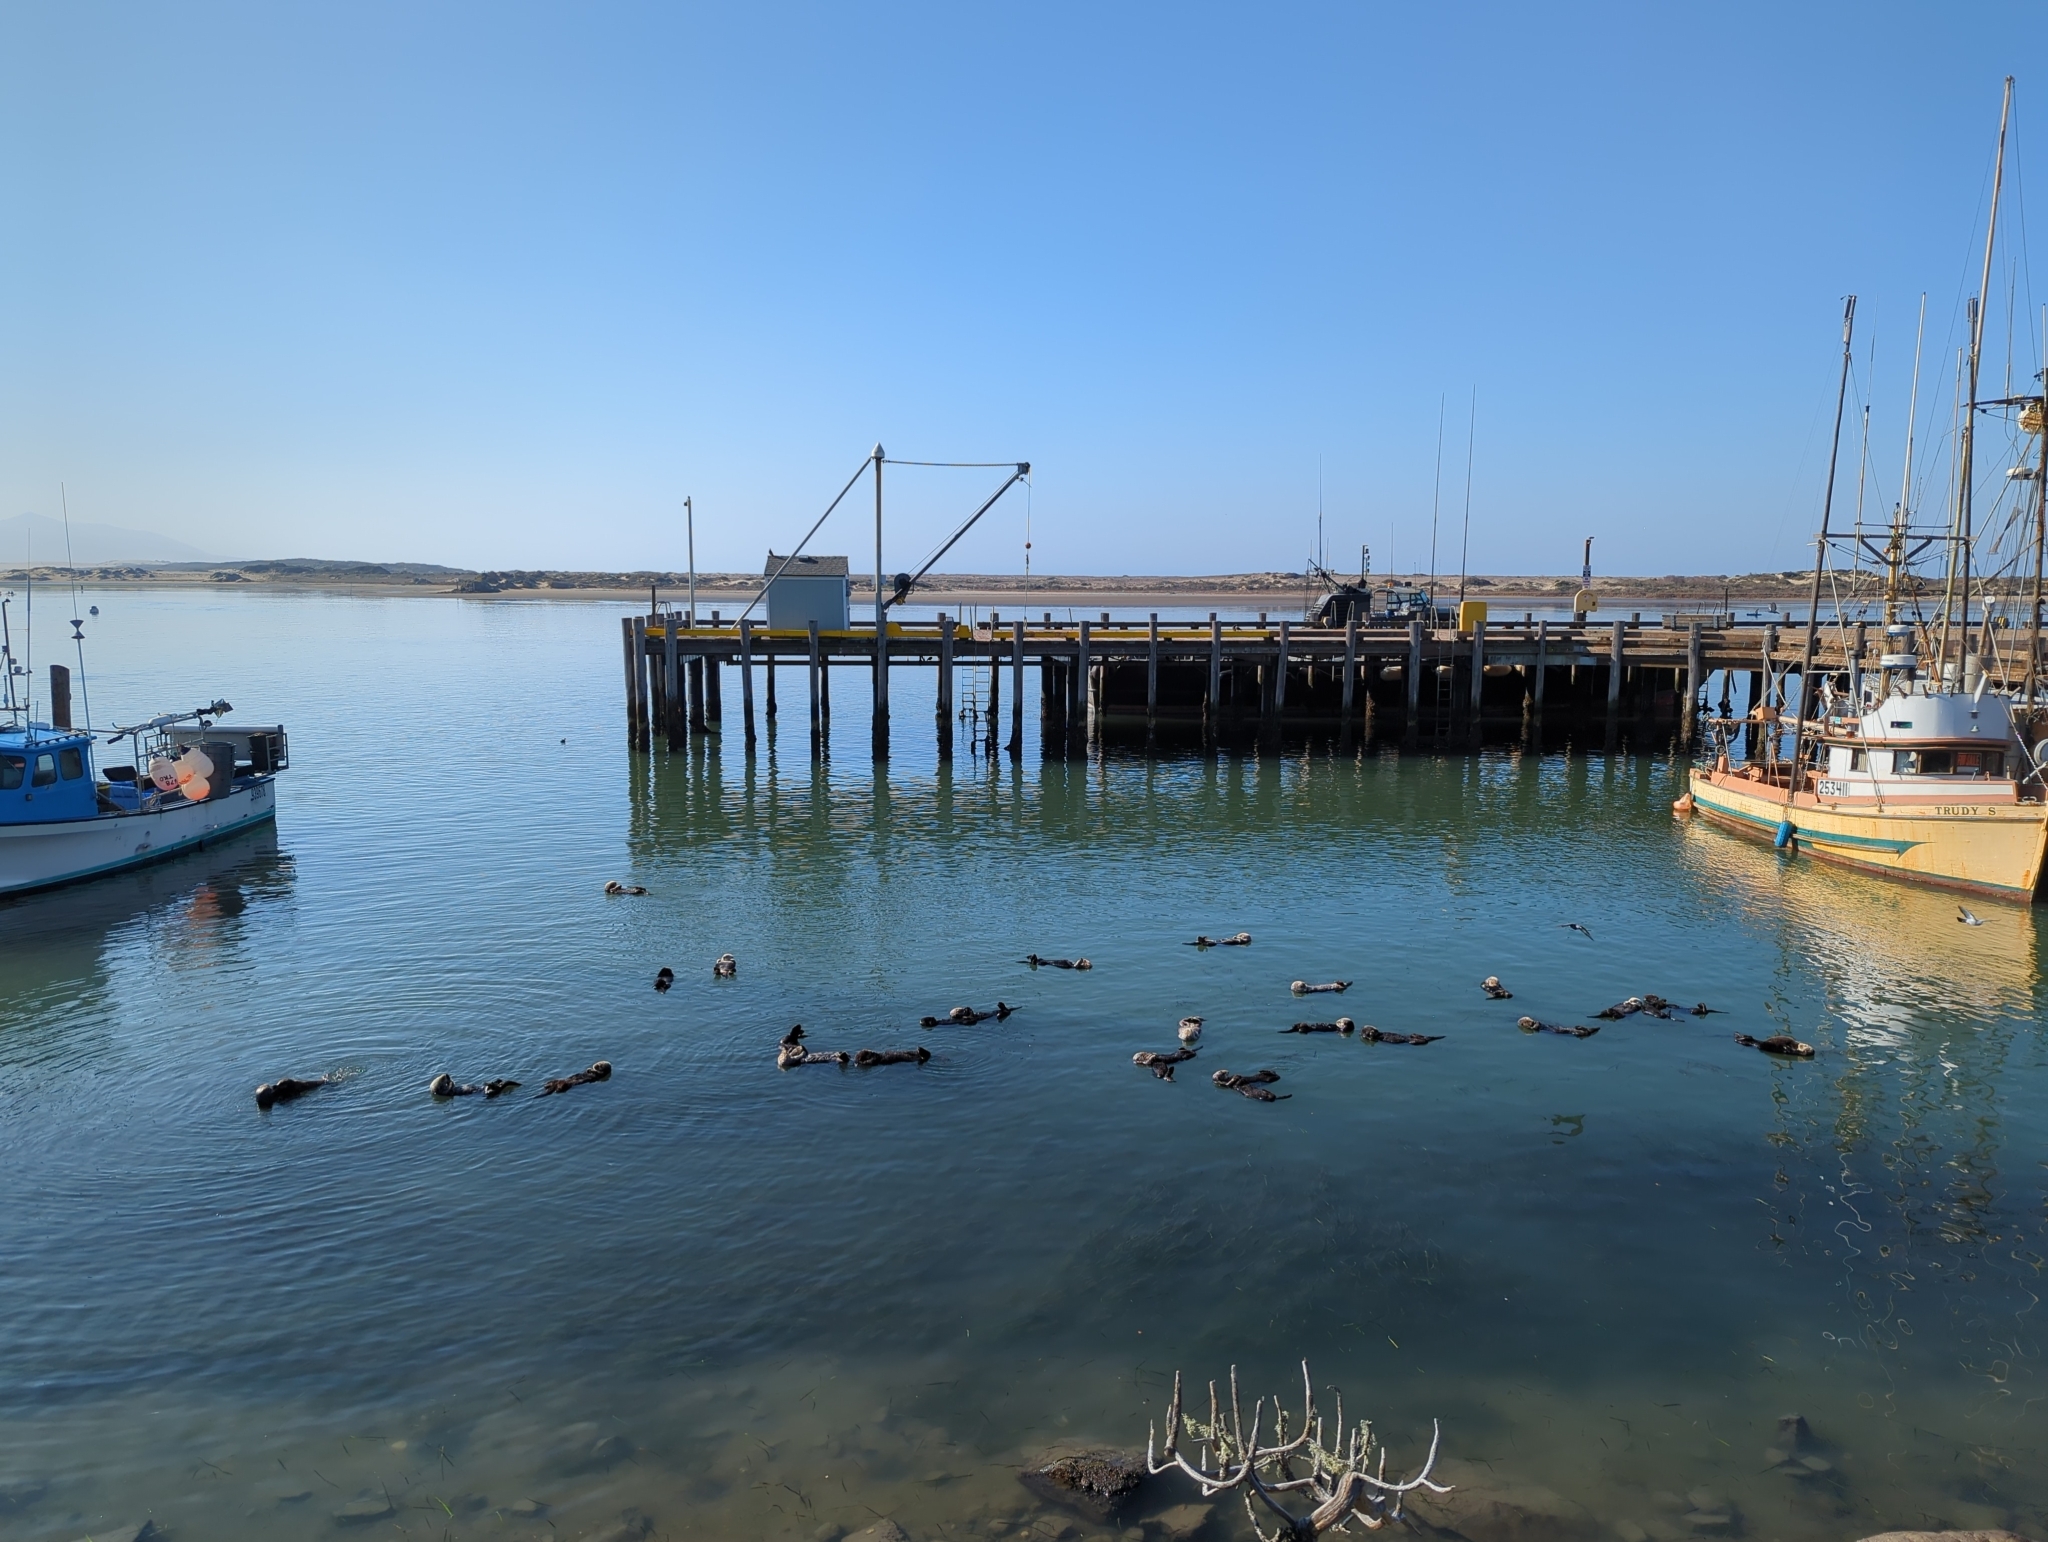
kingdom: Animalia
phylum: Chordata
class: Mammalia
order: Carnivora
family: Mustelidae
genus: Enhydra
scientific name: Enhydra lutris
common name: Sea otter
